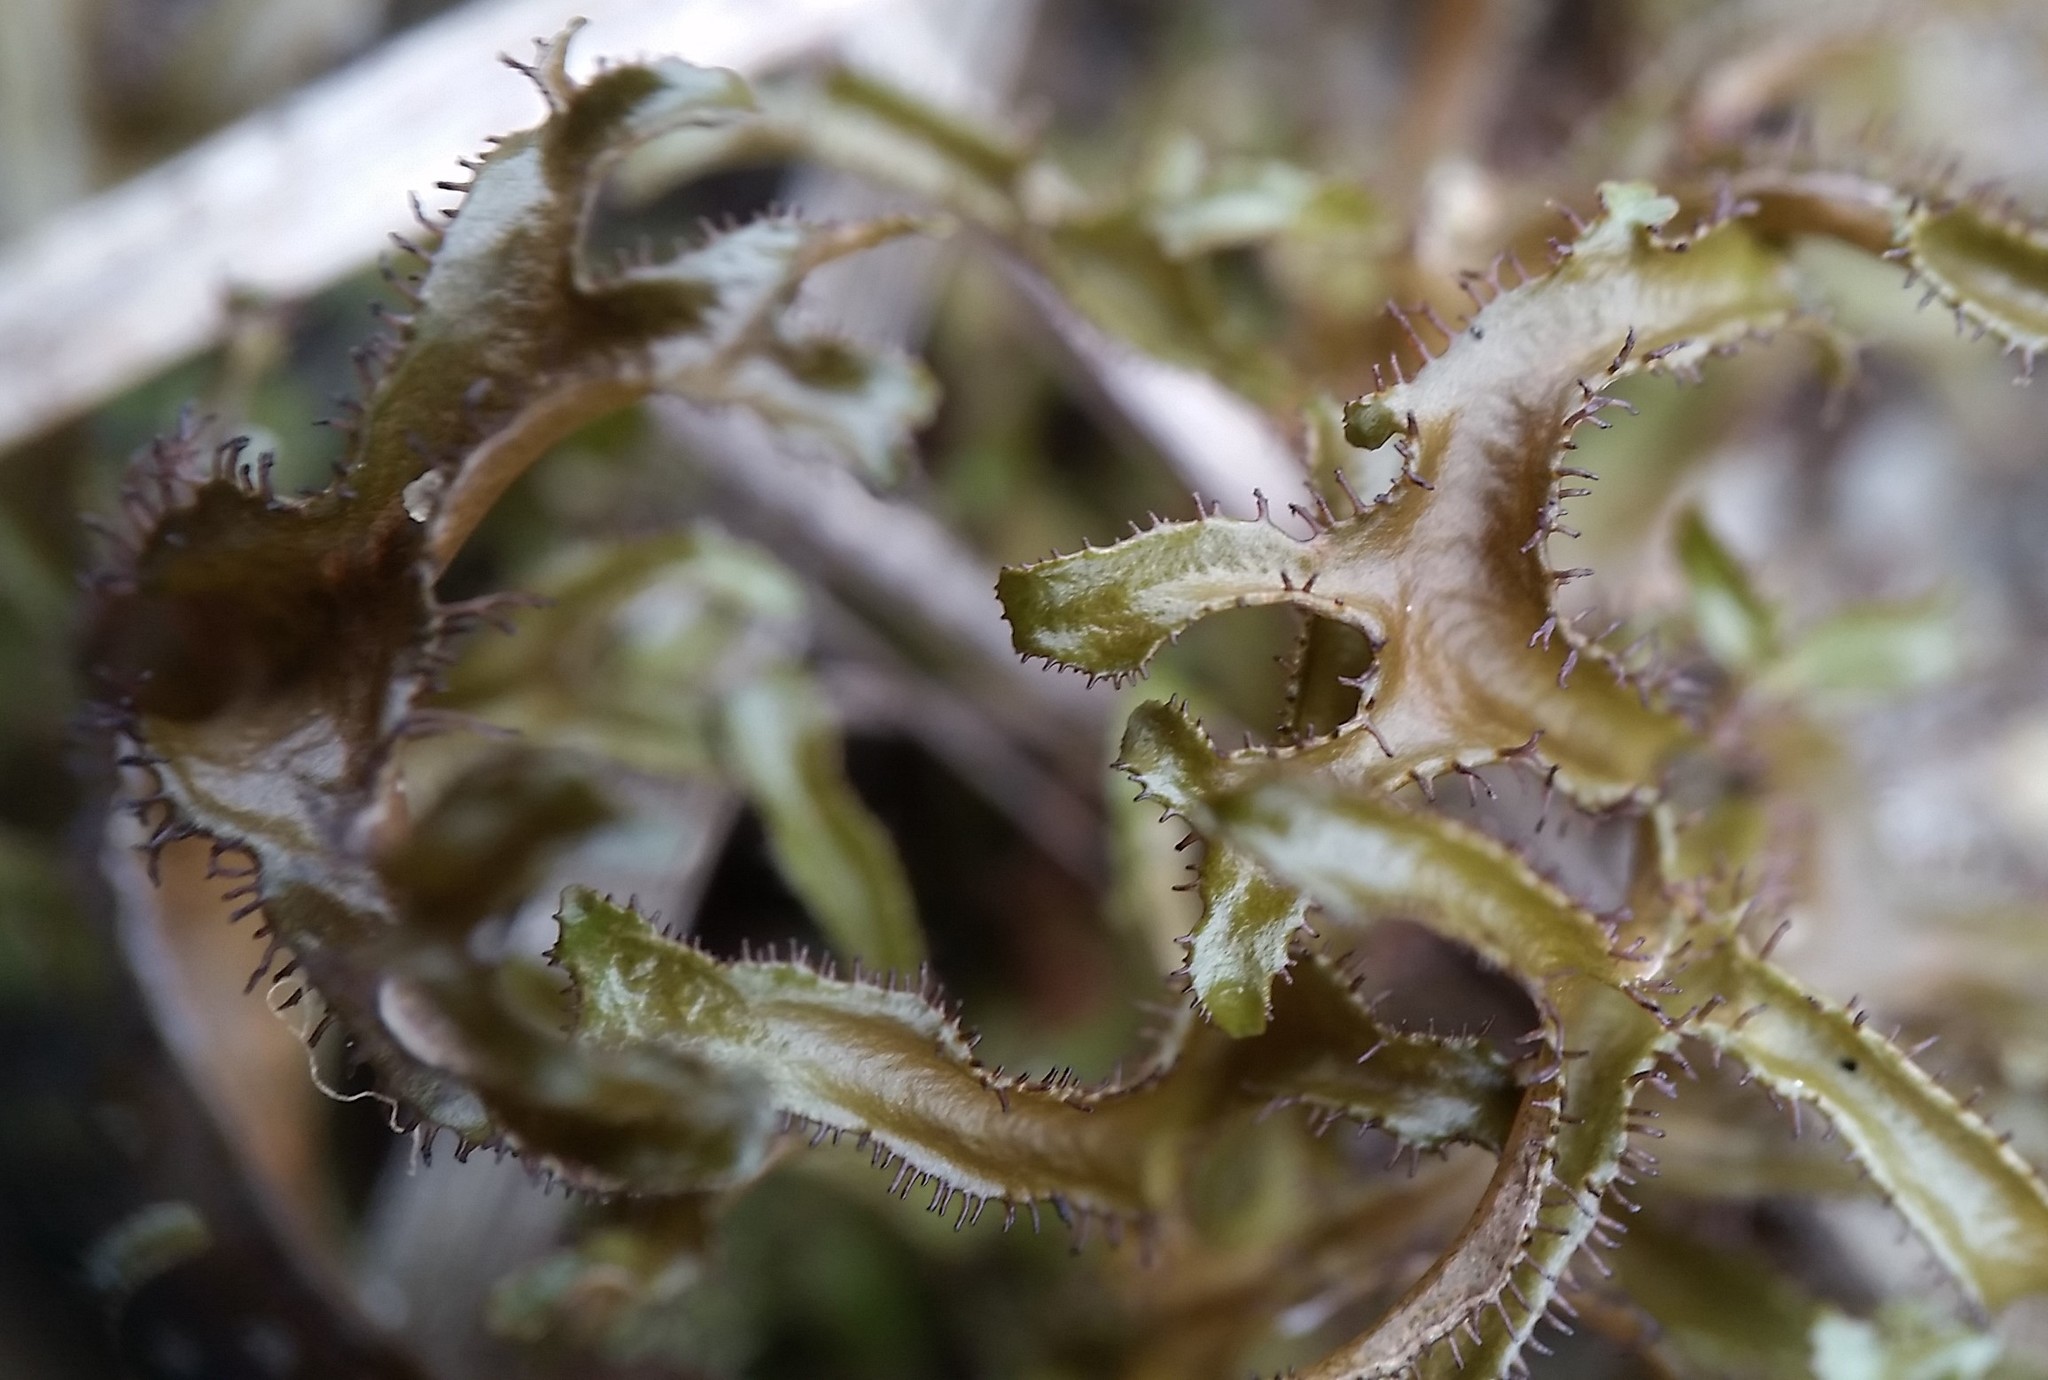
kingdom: Fungi
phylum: Ascomycota
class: Lecanoromycetes
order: Lecanorales
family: Parmeliaceae
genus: Cetraria
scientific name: Cetraria arenaria
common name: Sand-loving iceland lichen
